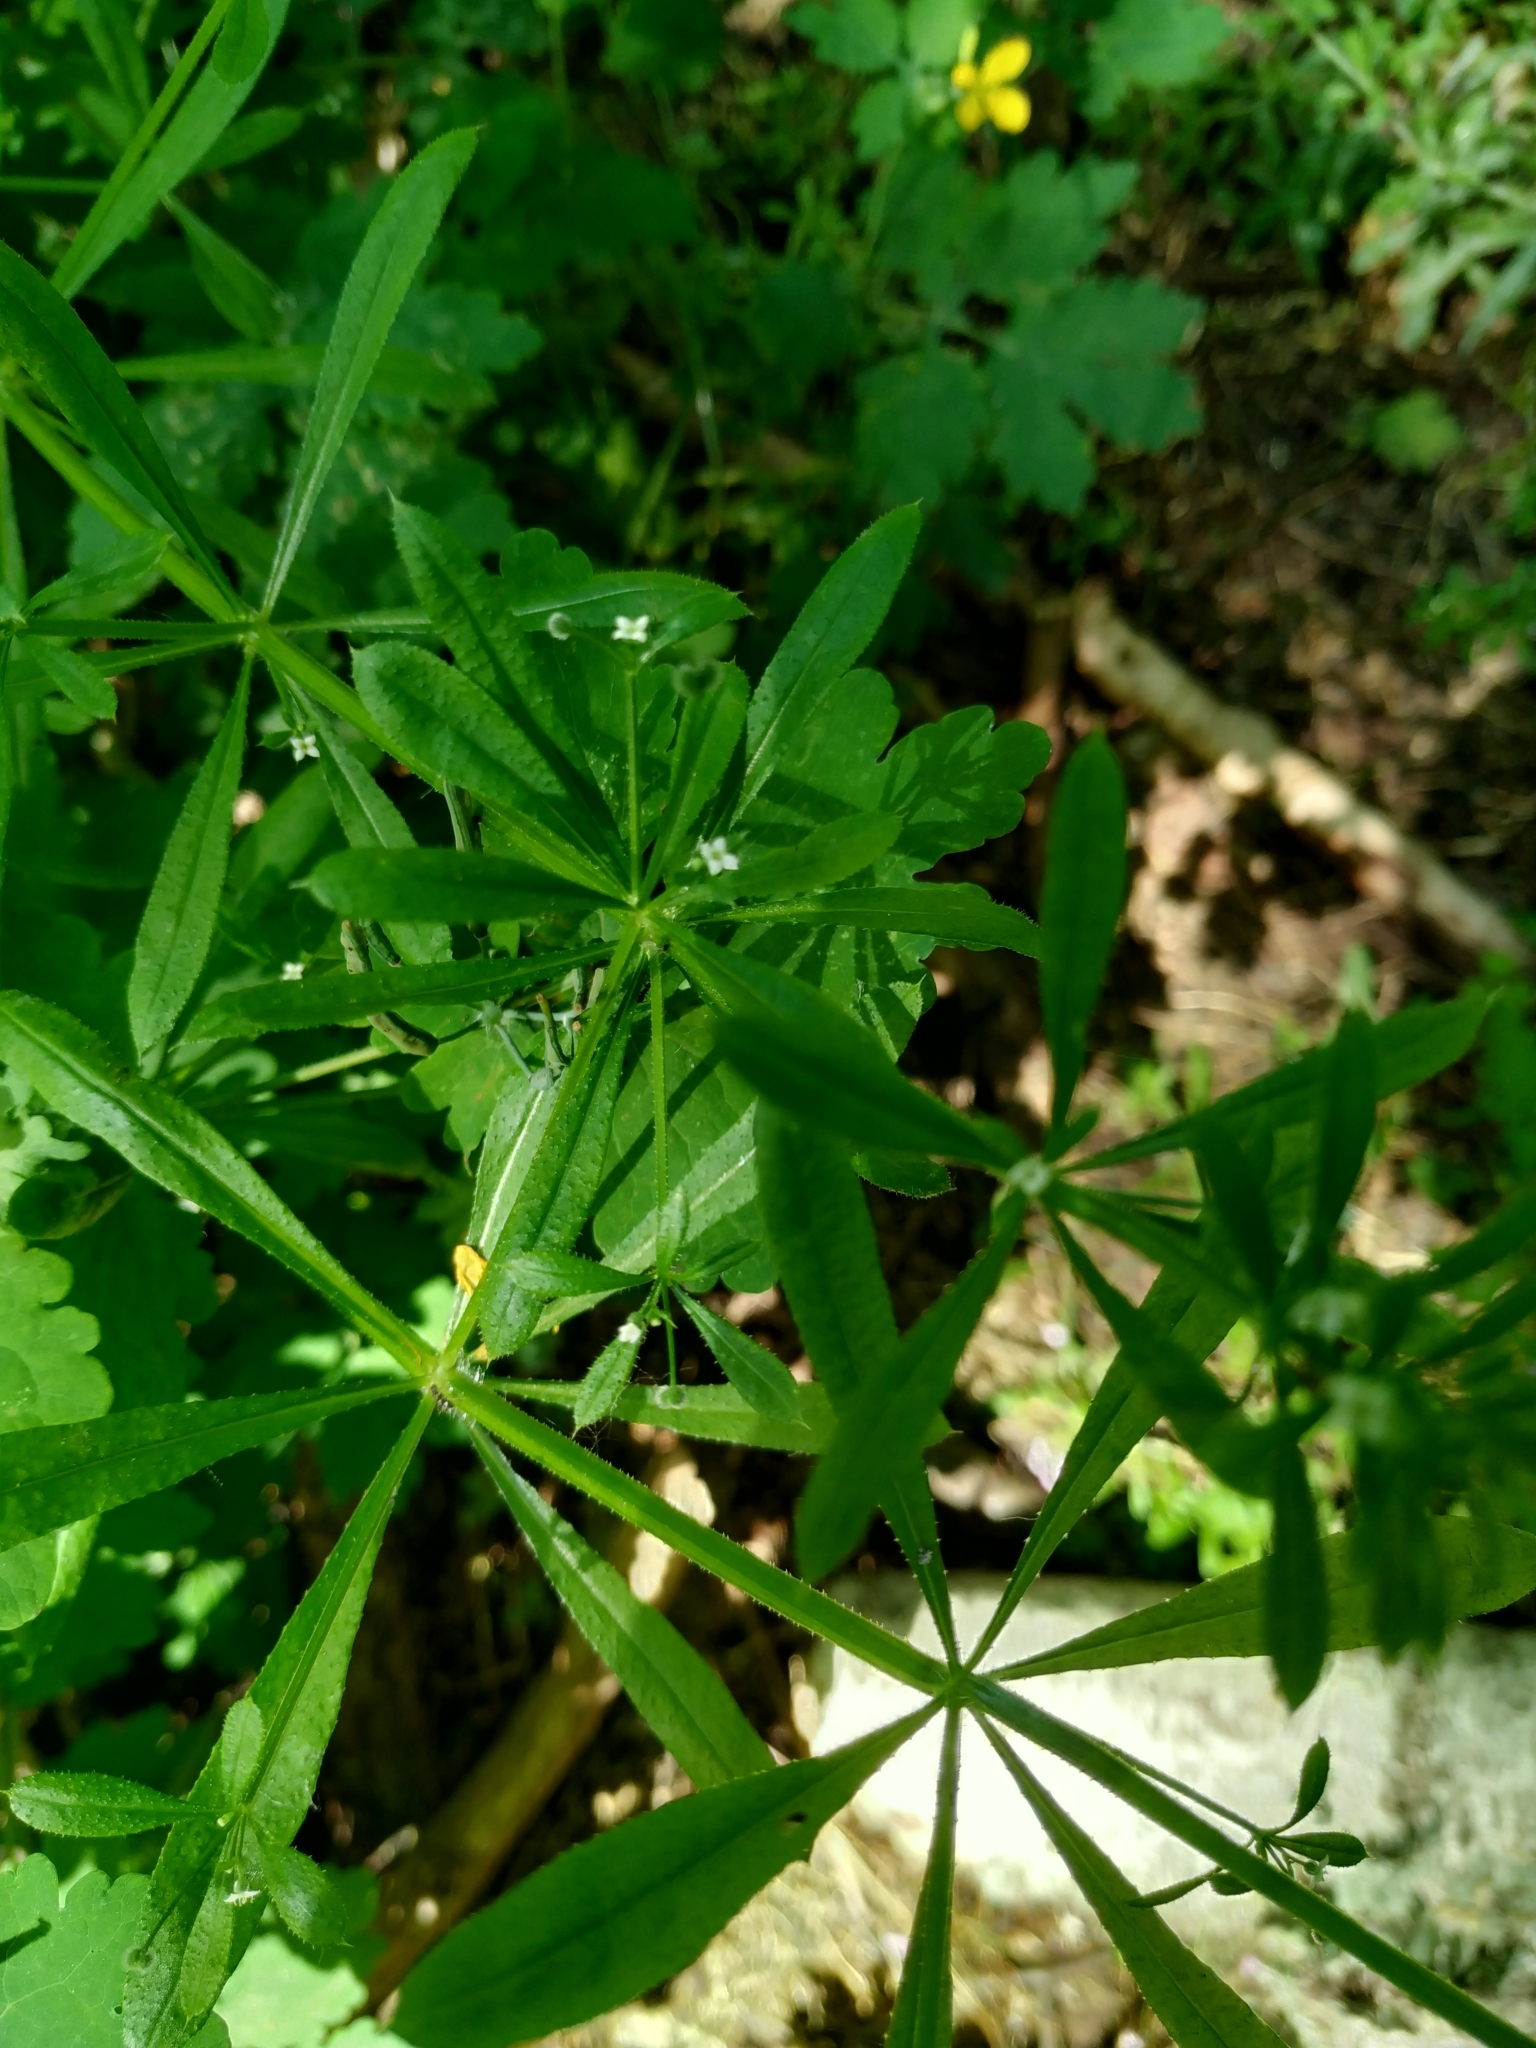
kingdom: Plantae
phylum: Tracheophyta
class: Magnoliopsida
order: Gentianales
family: Rubiaceae
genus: Galium
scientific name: Galium aparine
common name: Cleavers
